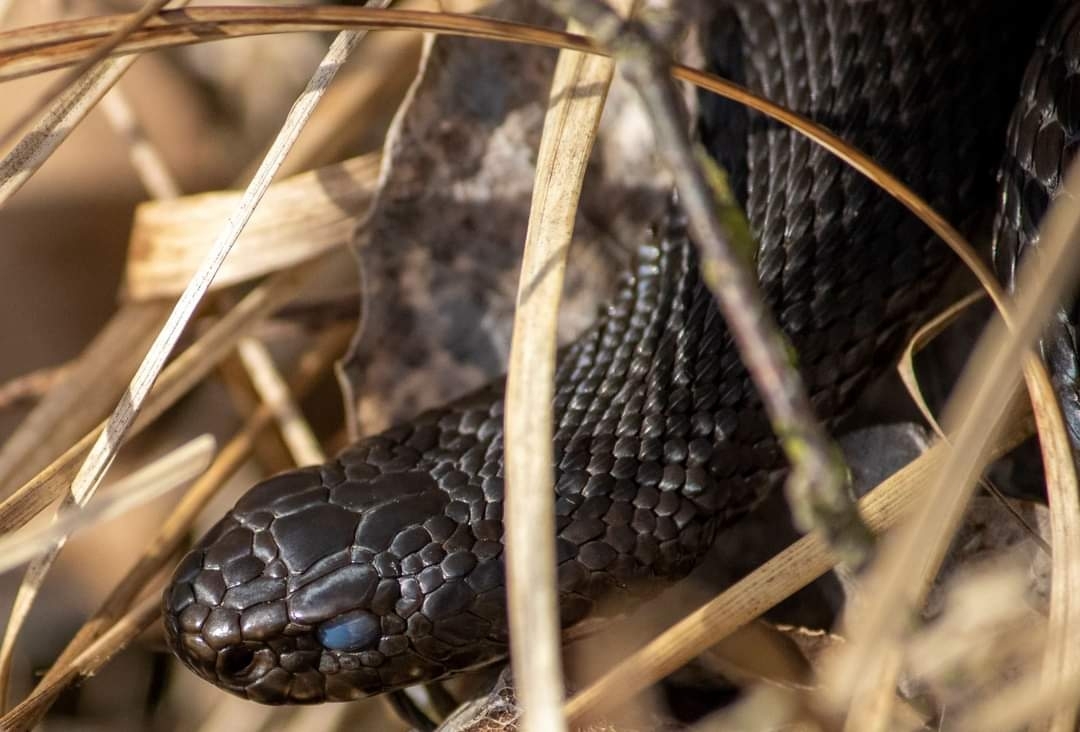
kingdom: Animalia
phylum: Chordata
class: Squamata
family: Viperidae
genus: Vipera
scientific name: Vipera berus
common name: Adder
